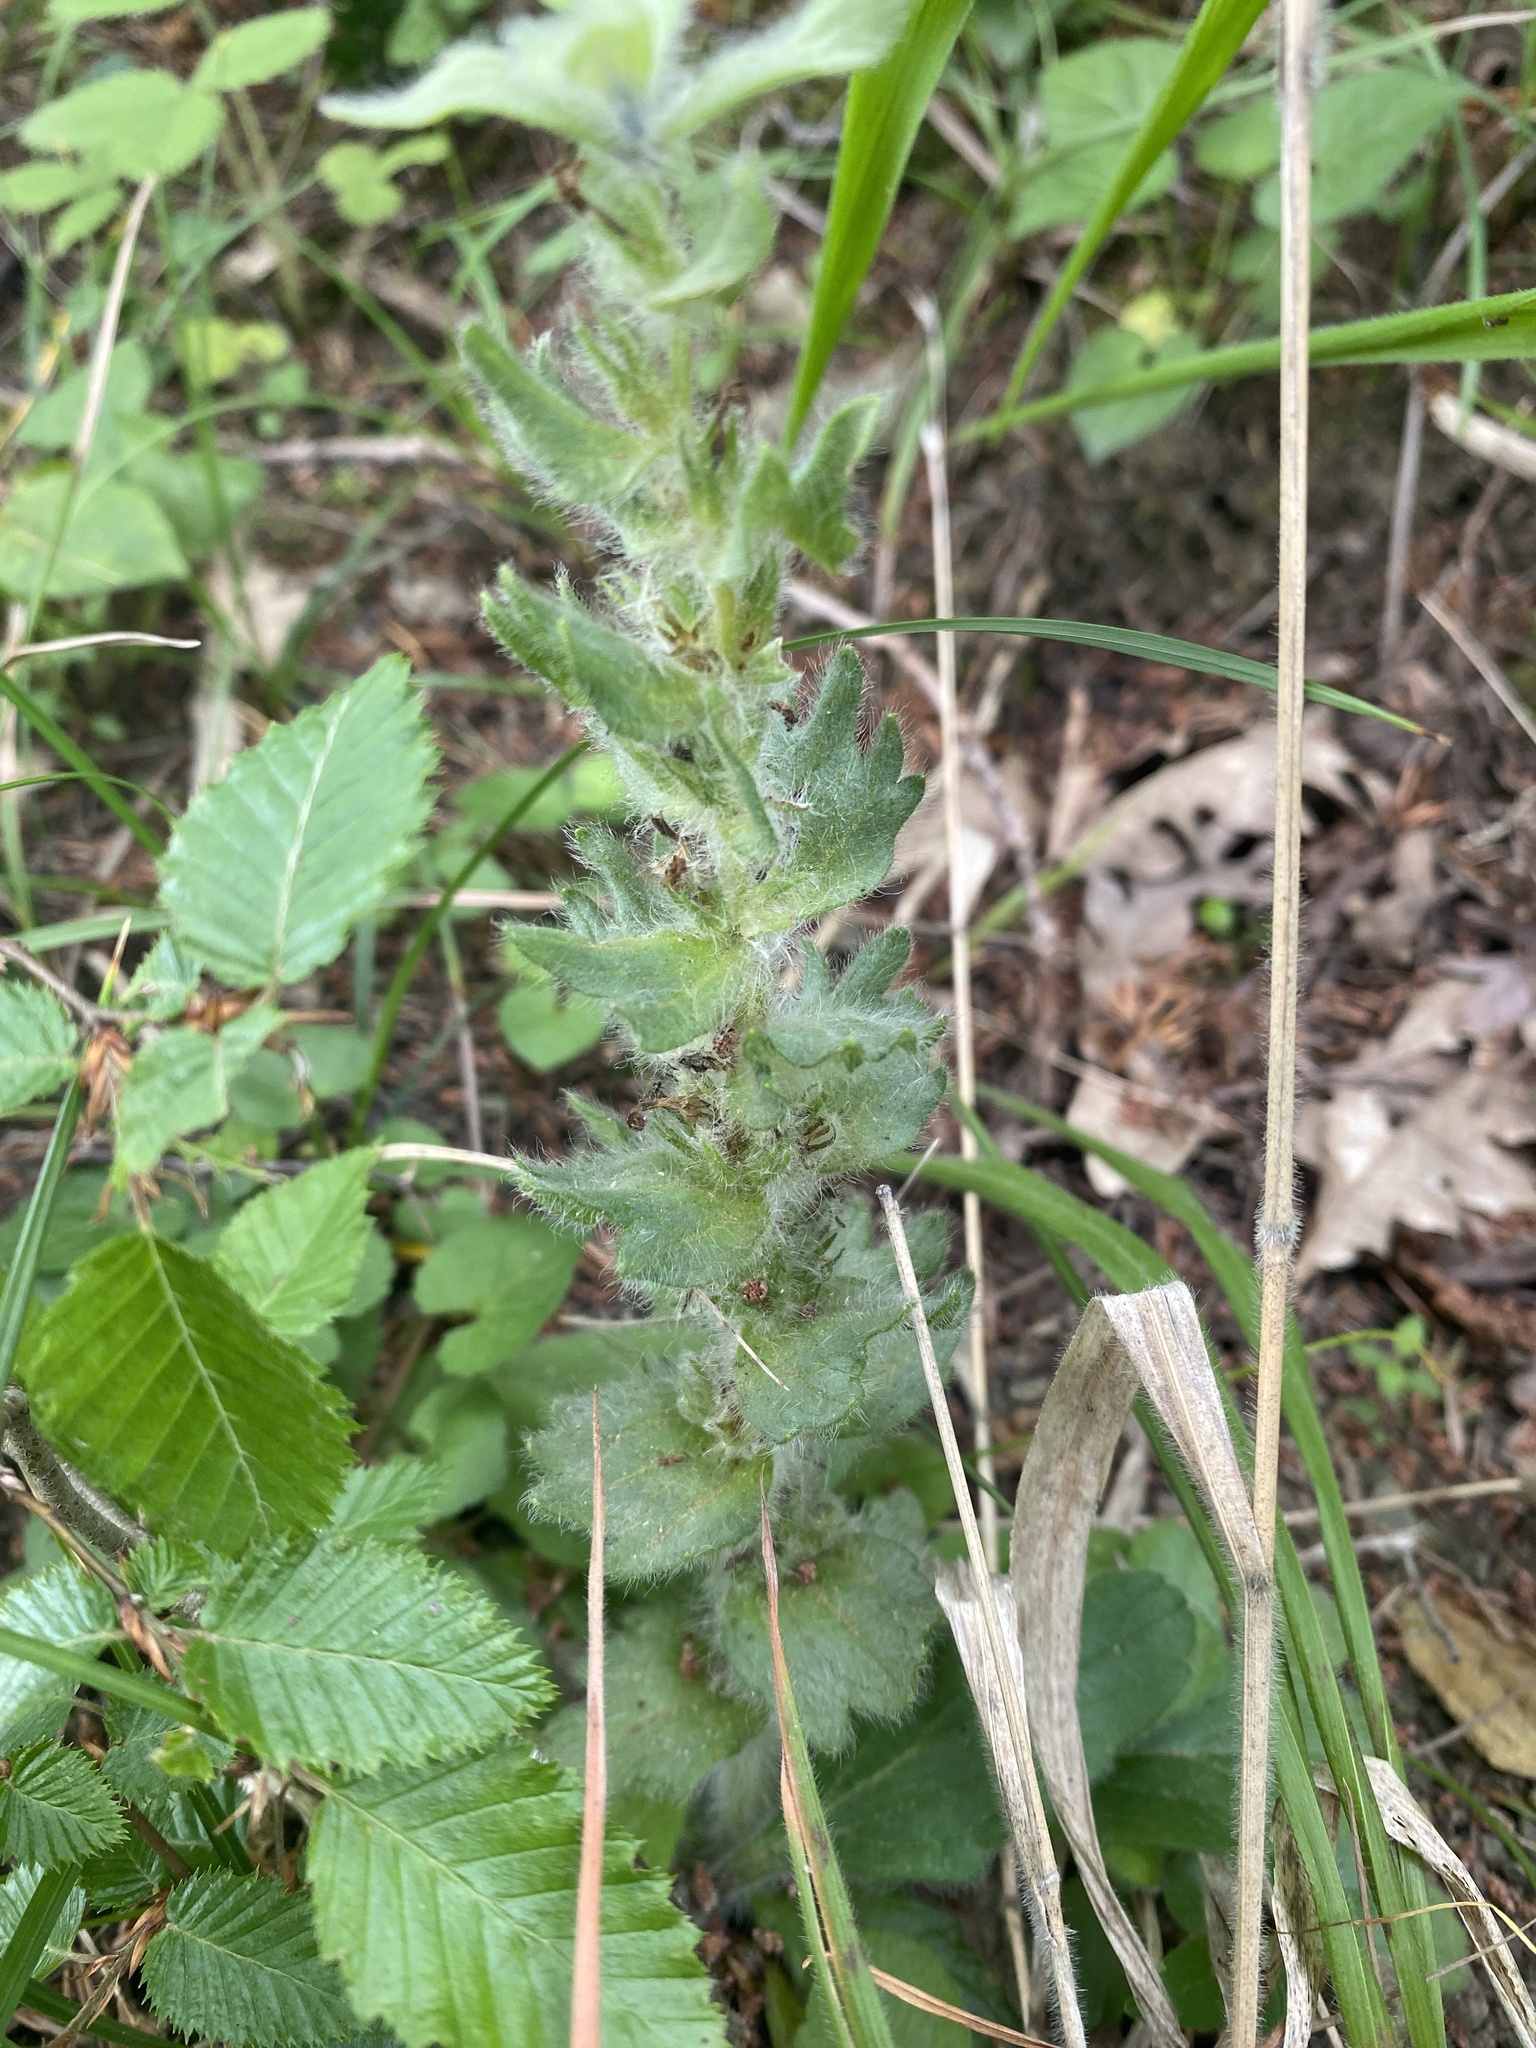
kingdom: Plantae
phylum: Tracheophyta
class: Magnoliopsida
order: Lamiales
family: Lamiaceae
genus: Ajuga
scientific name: Ajuga orientalis
